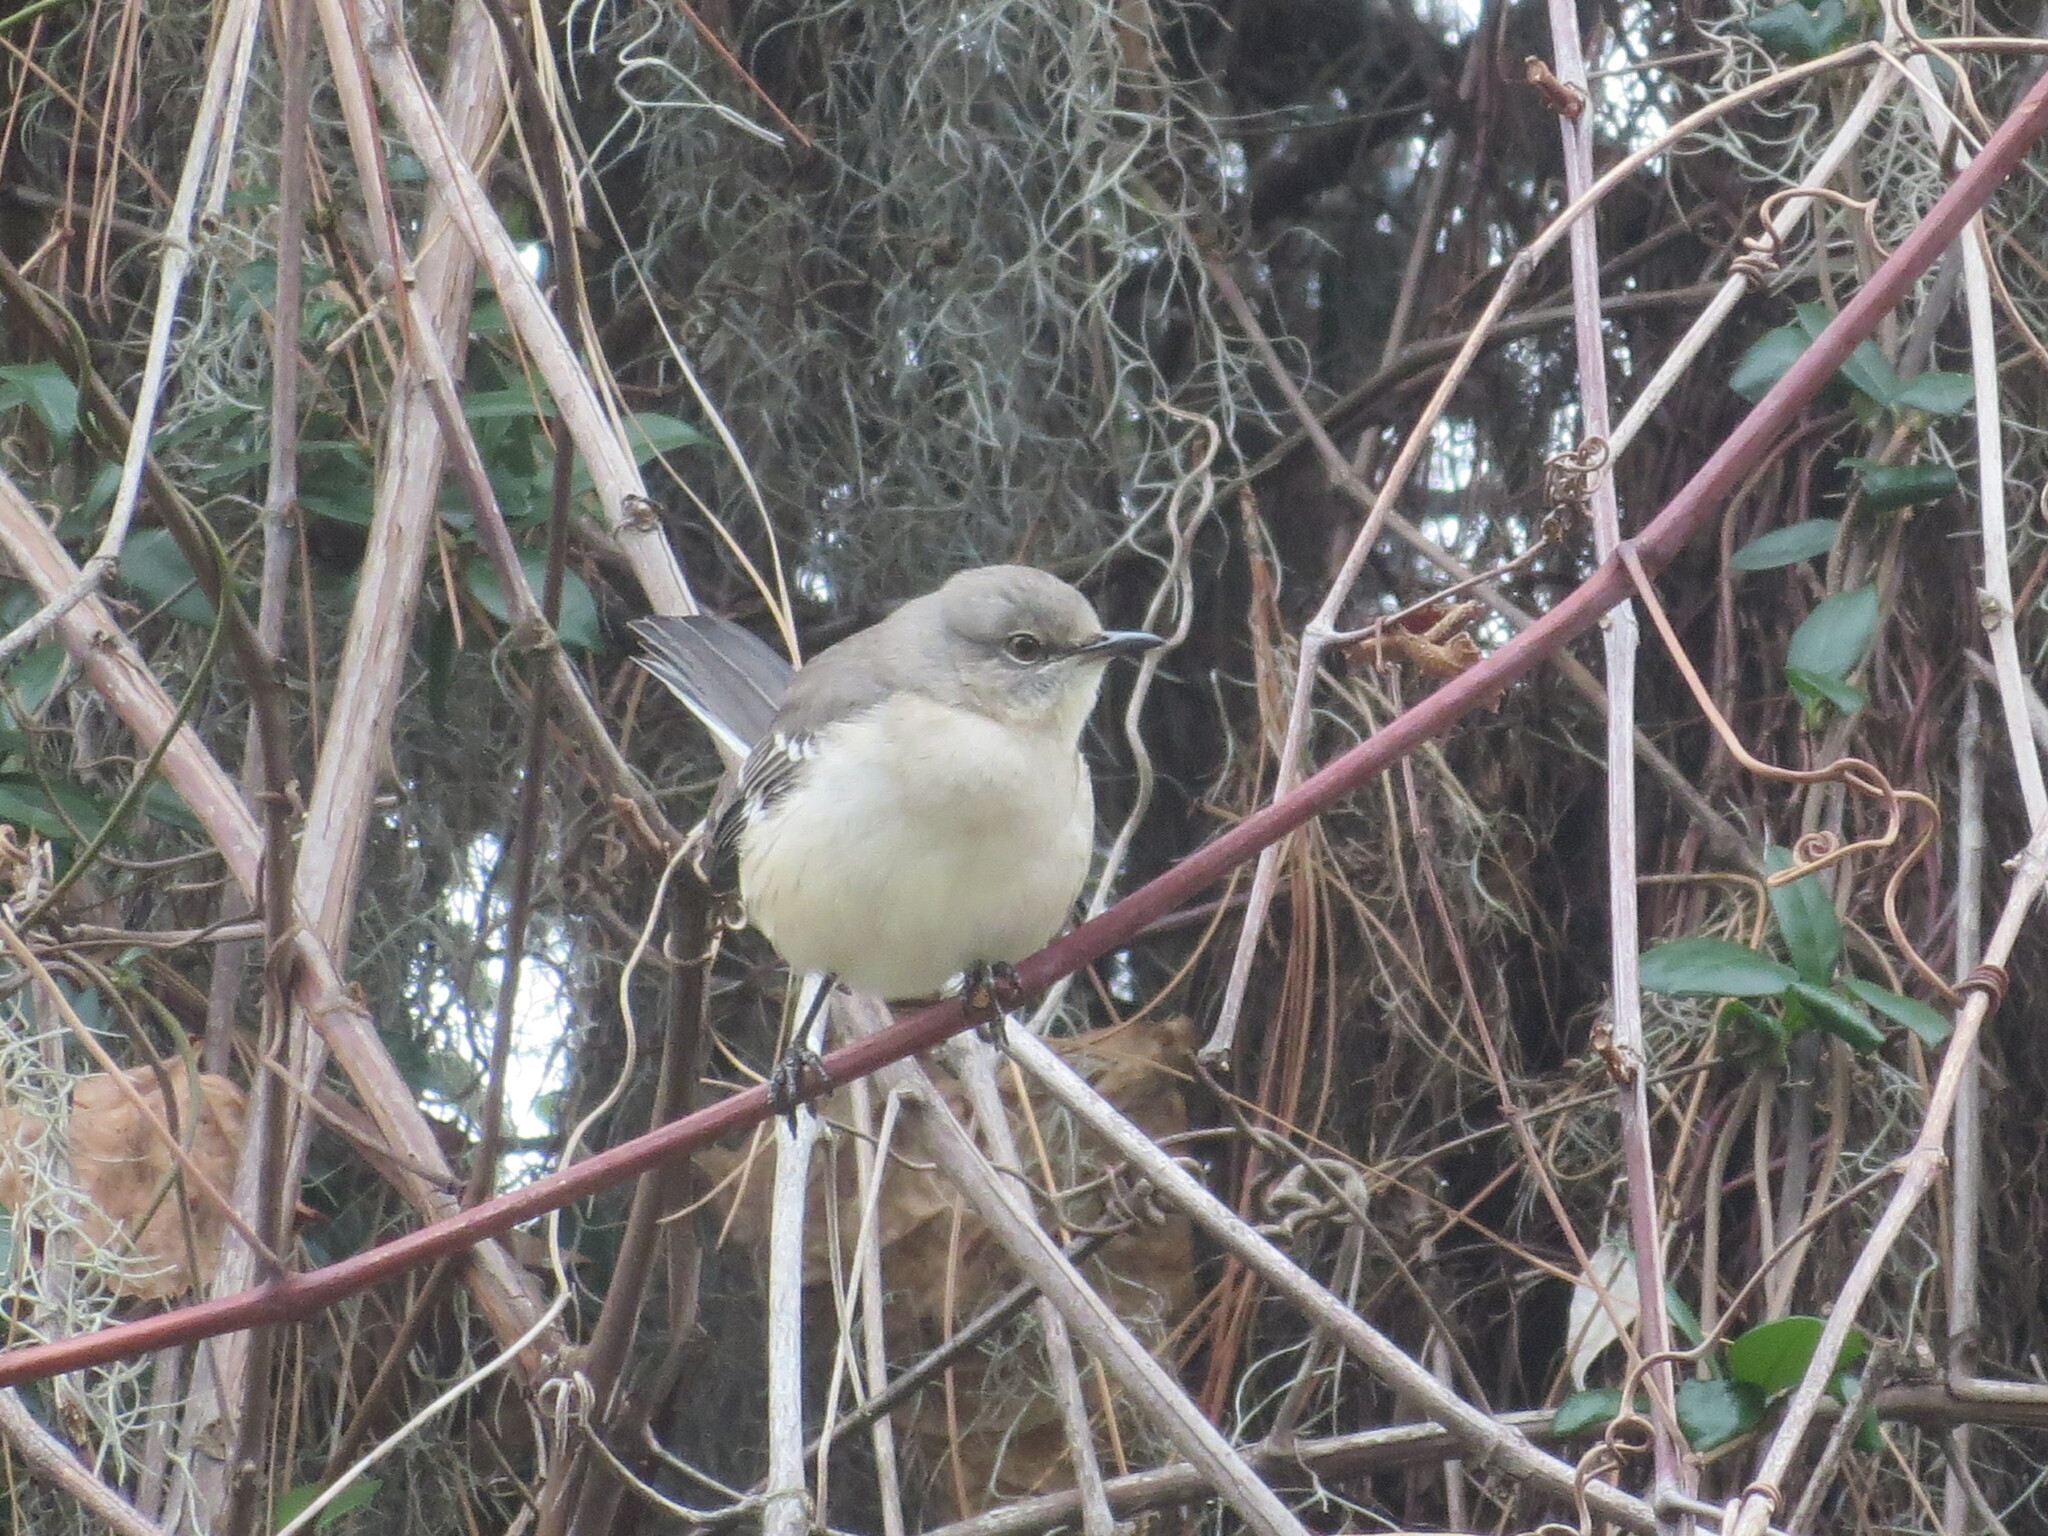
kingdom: Animalia
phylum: Chordata
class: Aves
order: Passeriformes
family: Mimidae
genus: Mimus
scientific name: Mimus polyglottos
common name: Northern mockingbird
